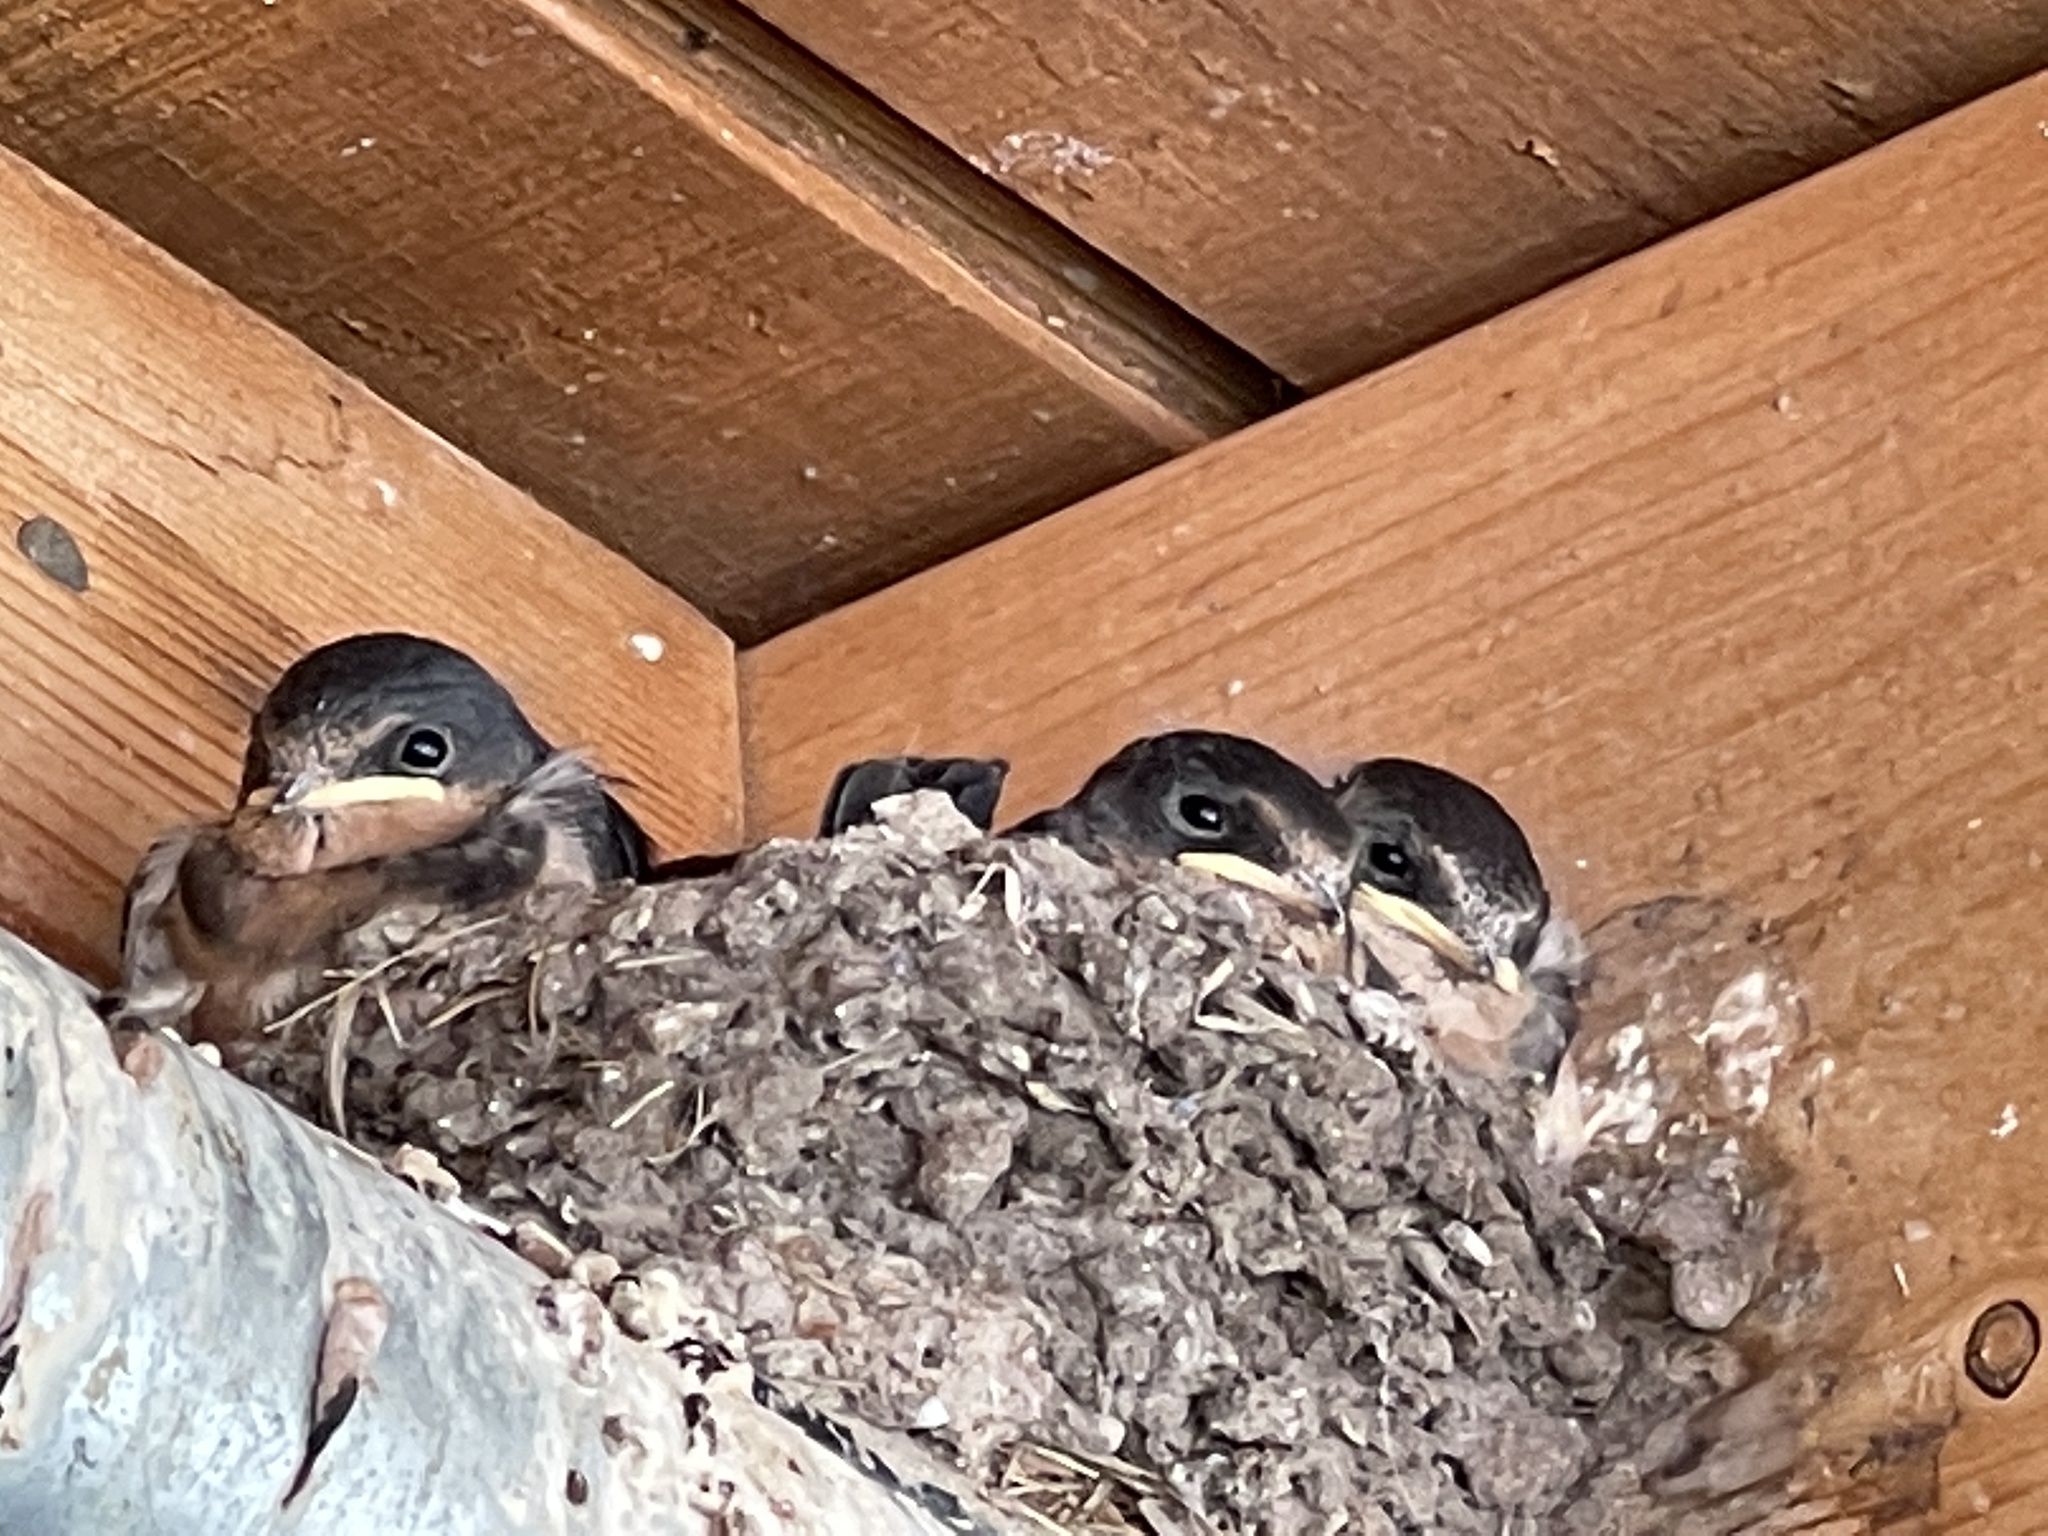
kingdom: Animalia
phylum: Chordata
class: Aves
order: Passeriformes
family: Hirundinidae
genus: Hirundo
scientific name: Hirundo rustica
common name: Barn swallow
